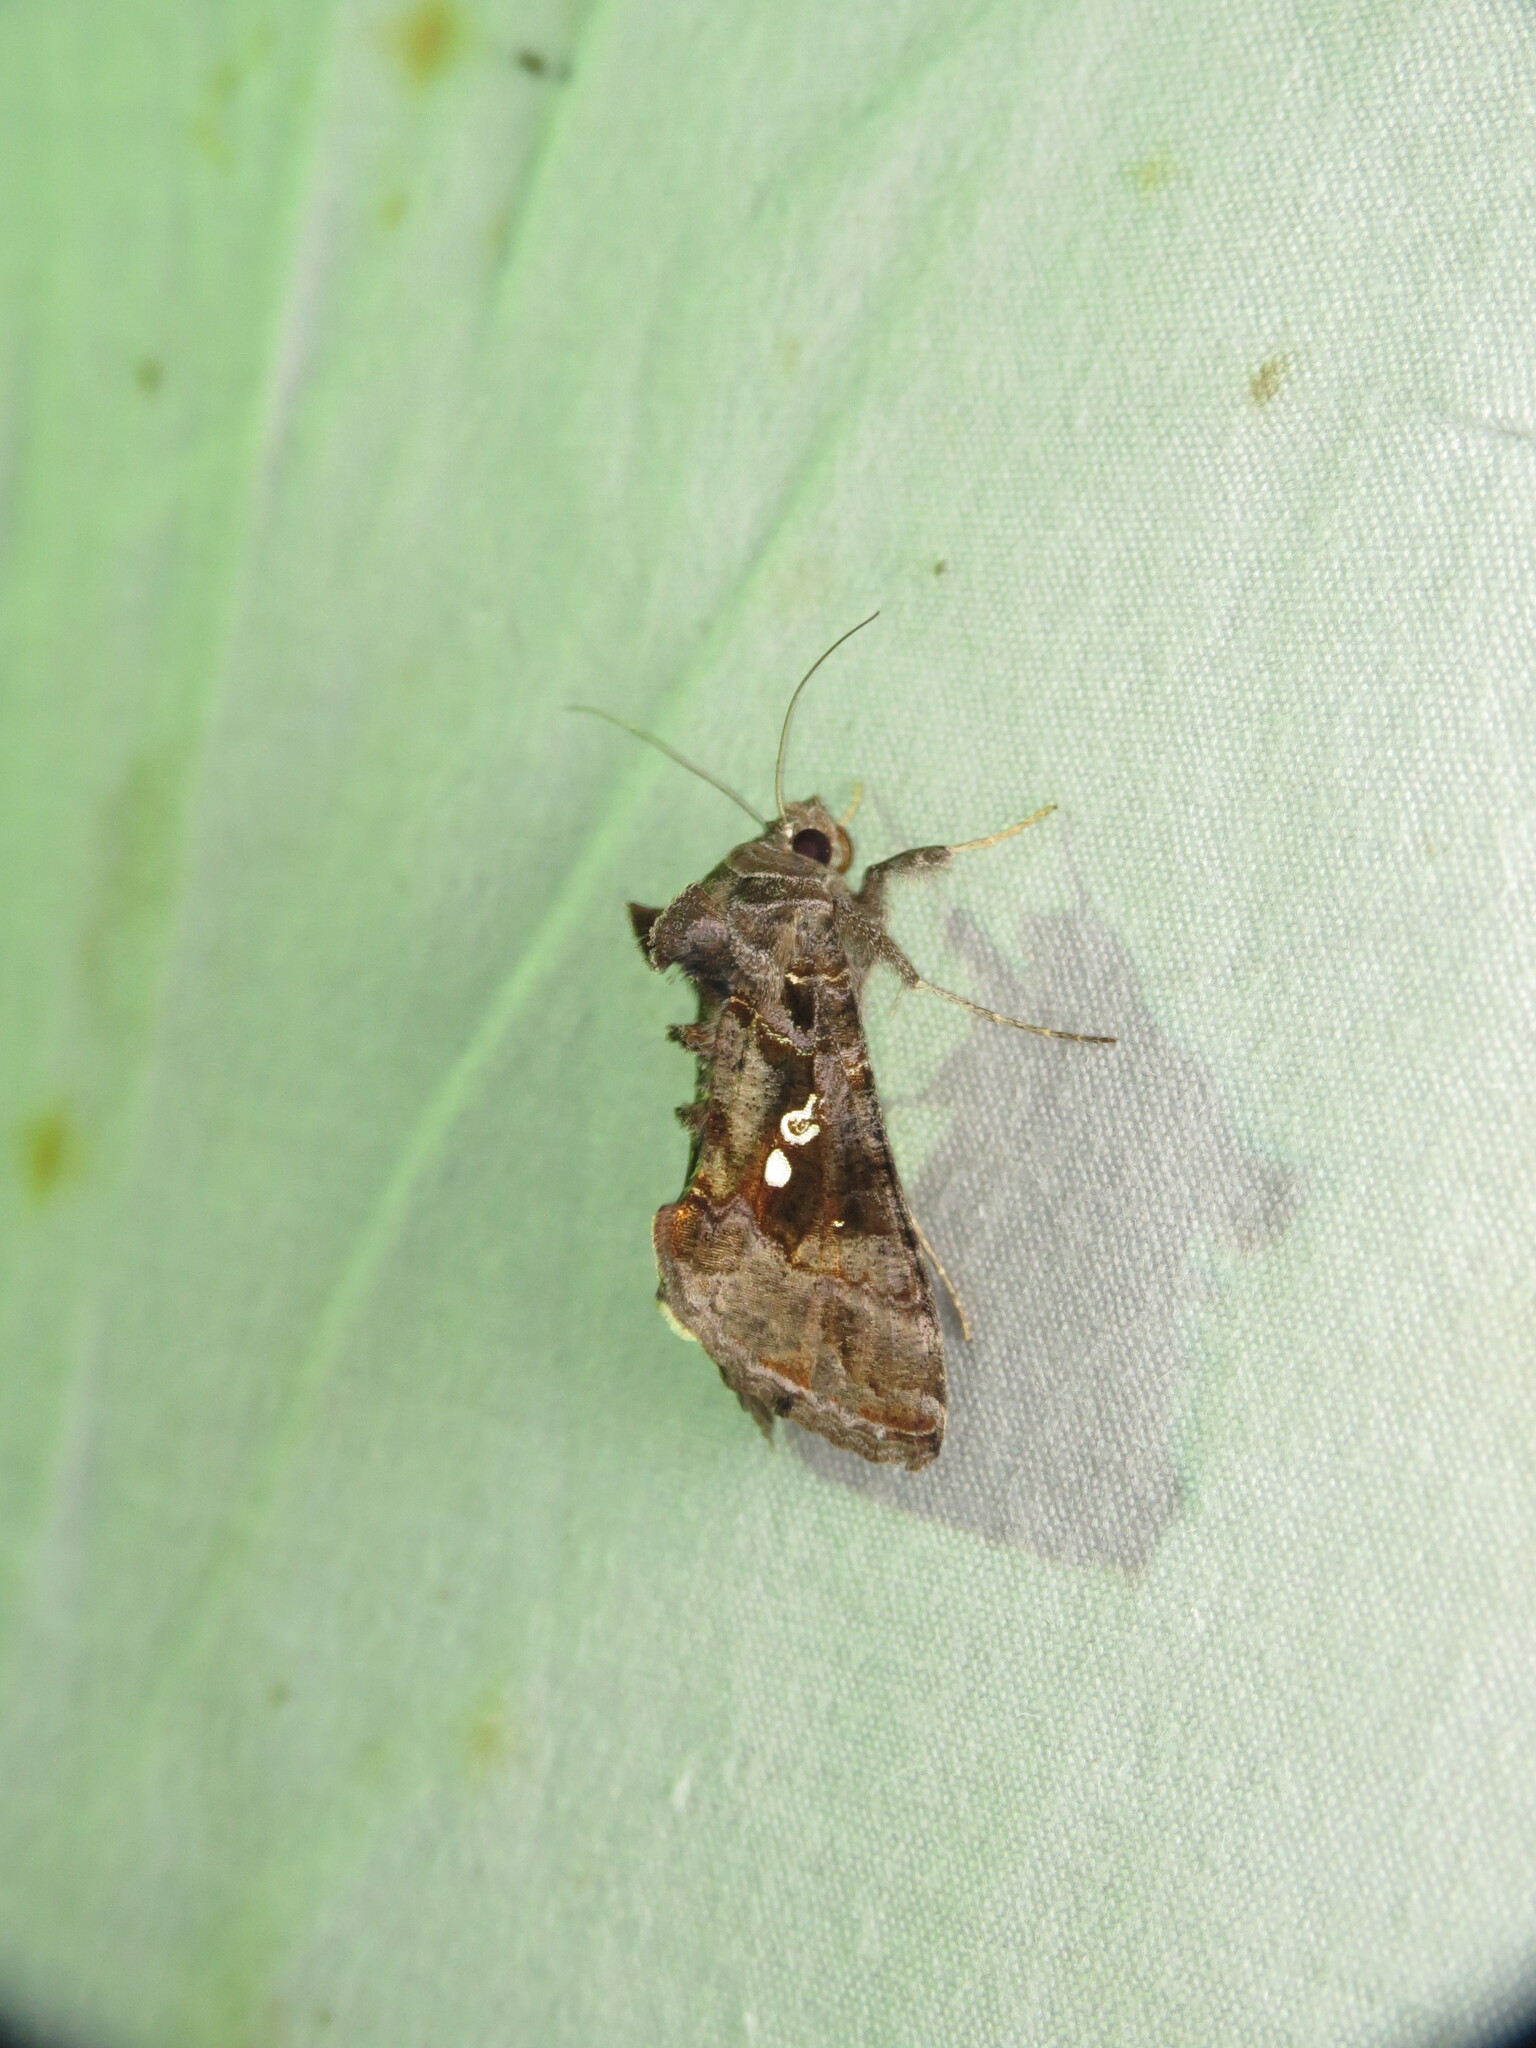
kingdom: Animalia
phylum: Arthropoda
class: Insecta
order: Lepidoptera
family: Noctuidae
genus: Chrysodeixis
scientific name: Chrysodeixis includens
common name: Cutworm moth
